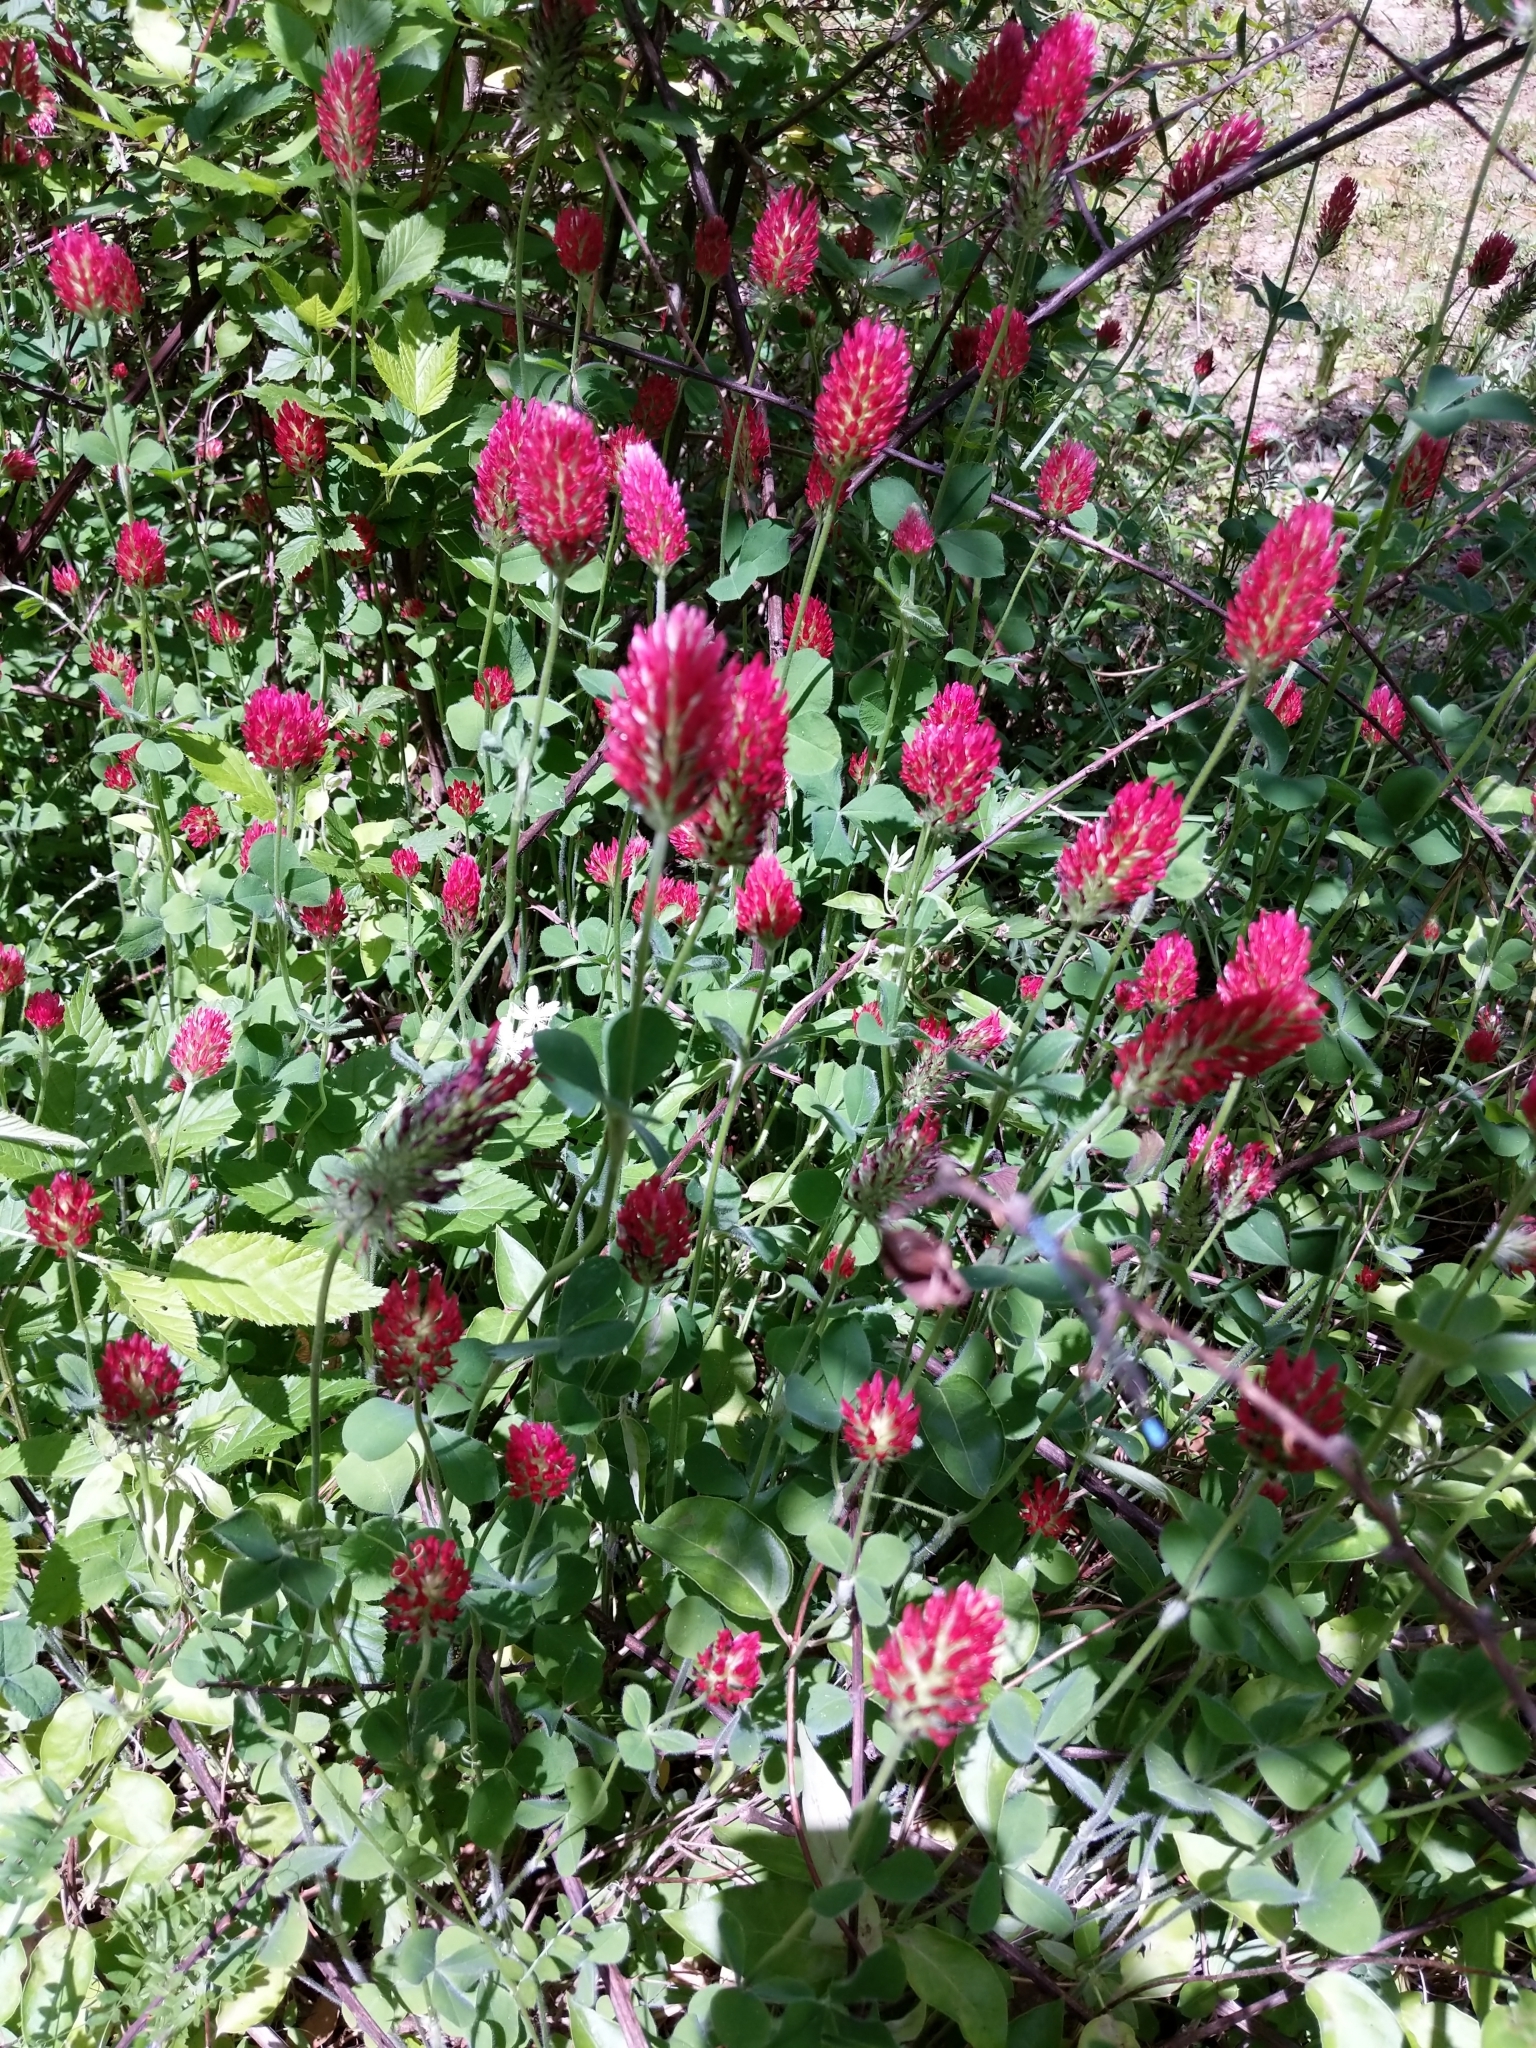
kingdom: Plantae
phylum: Tracheophyta
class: Magnoliopsida
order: Fabales
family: Fabaceae
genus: Trifolium
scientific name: Trifolium incarnatum
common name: Crimson clover
